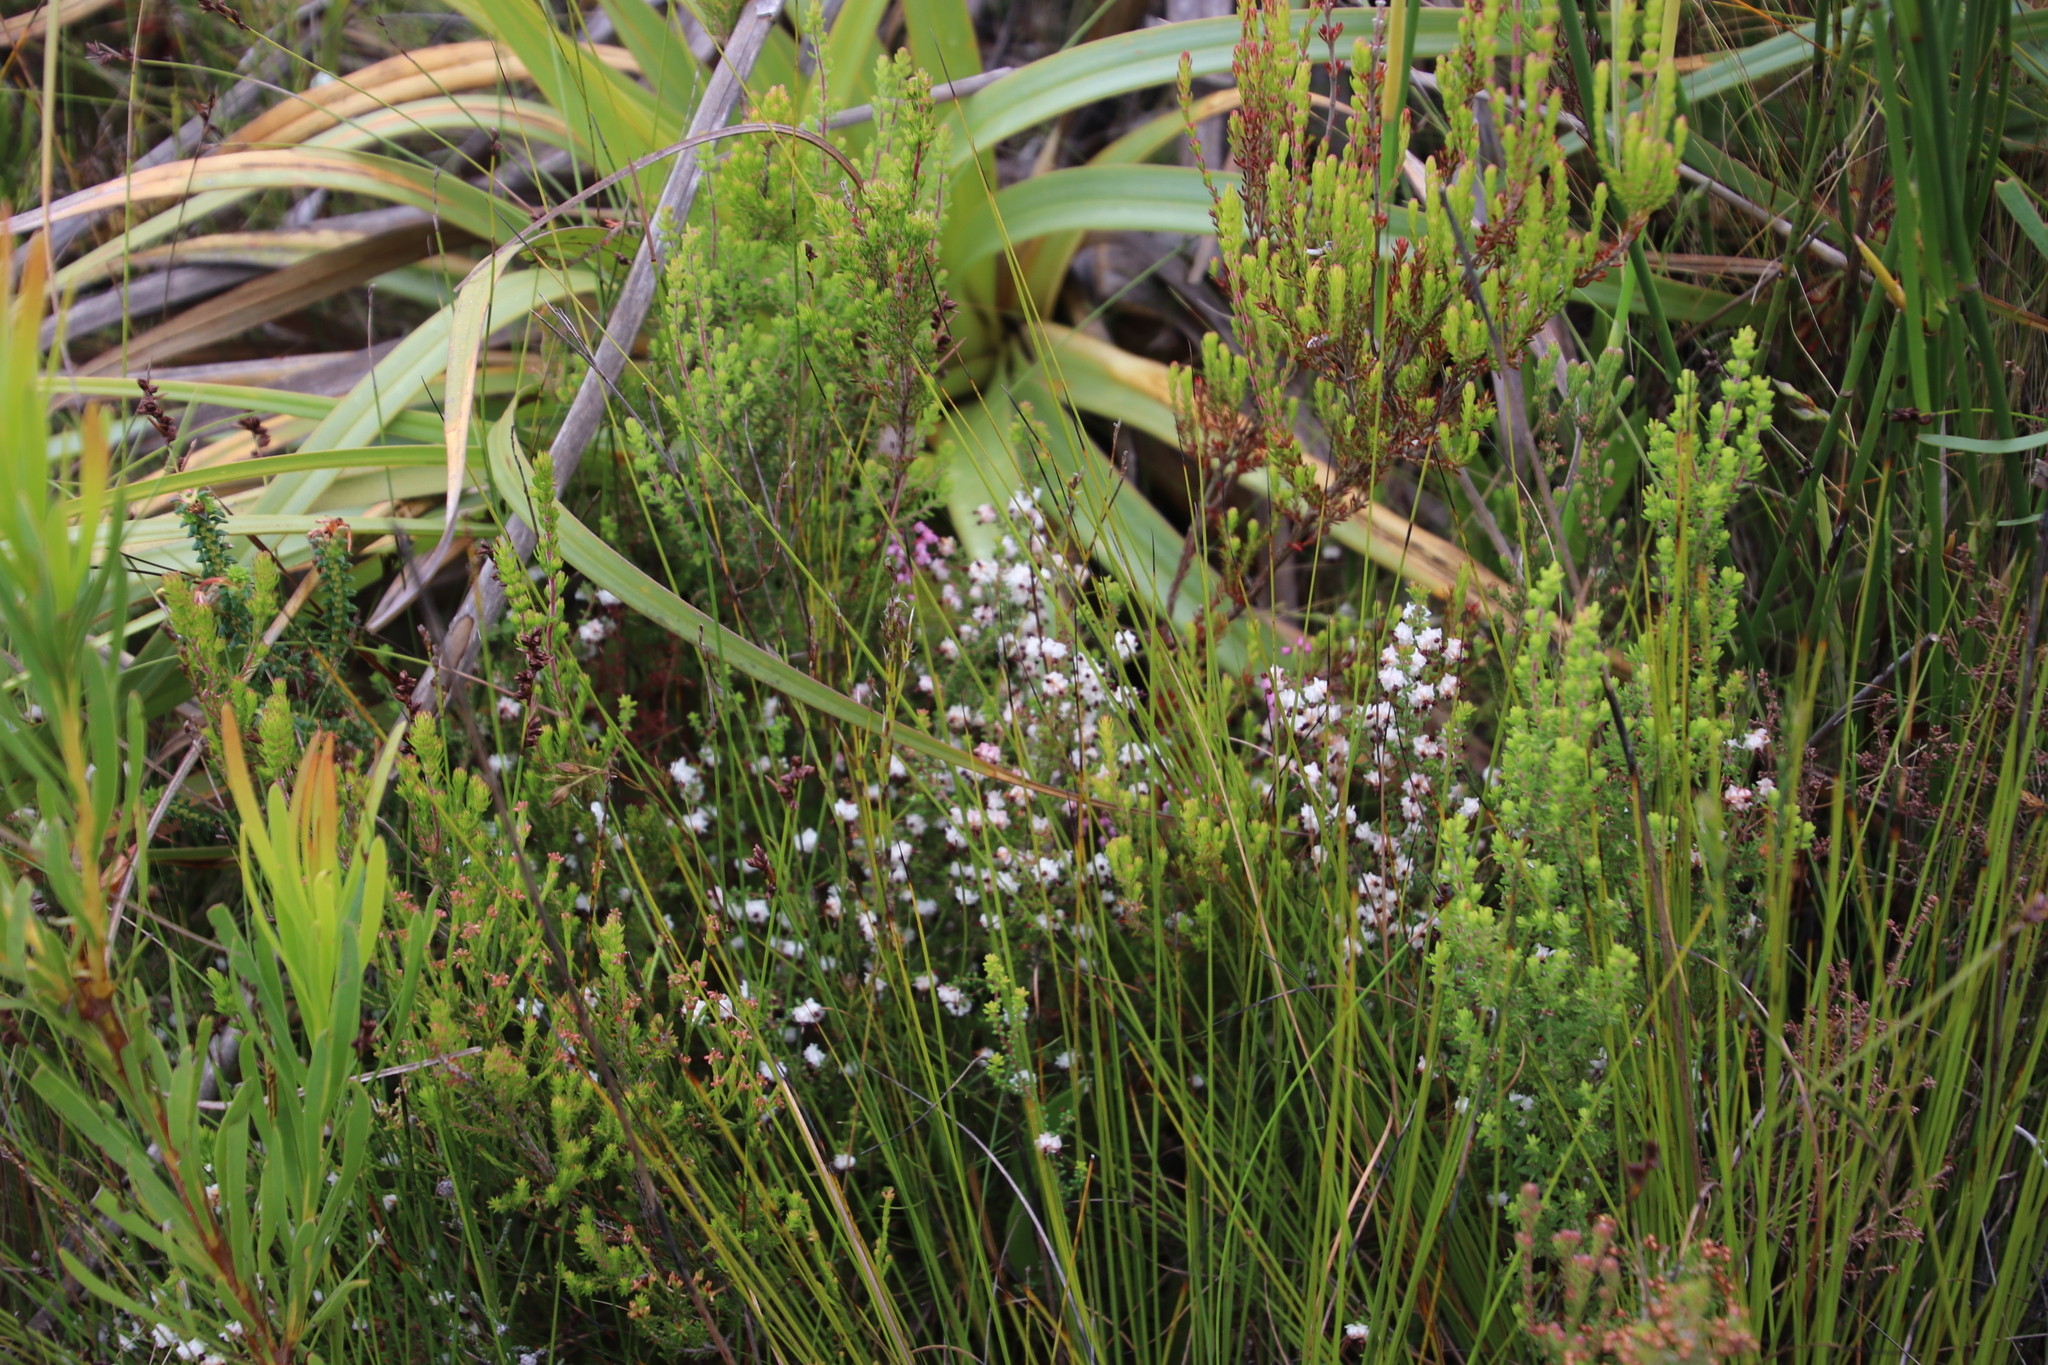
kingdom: Plantae
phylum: Tracheophyta
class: Magnoliopsida
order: Ericales
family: Ericaceae
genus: Erica
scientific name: Erica azaleifolia
